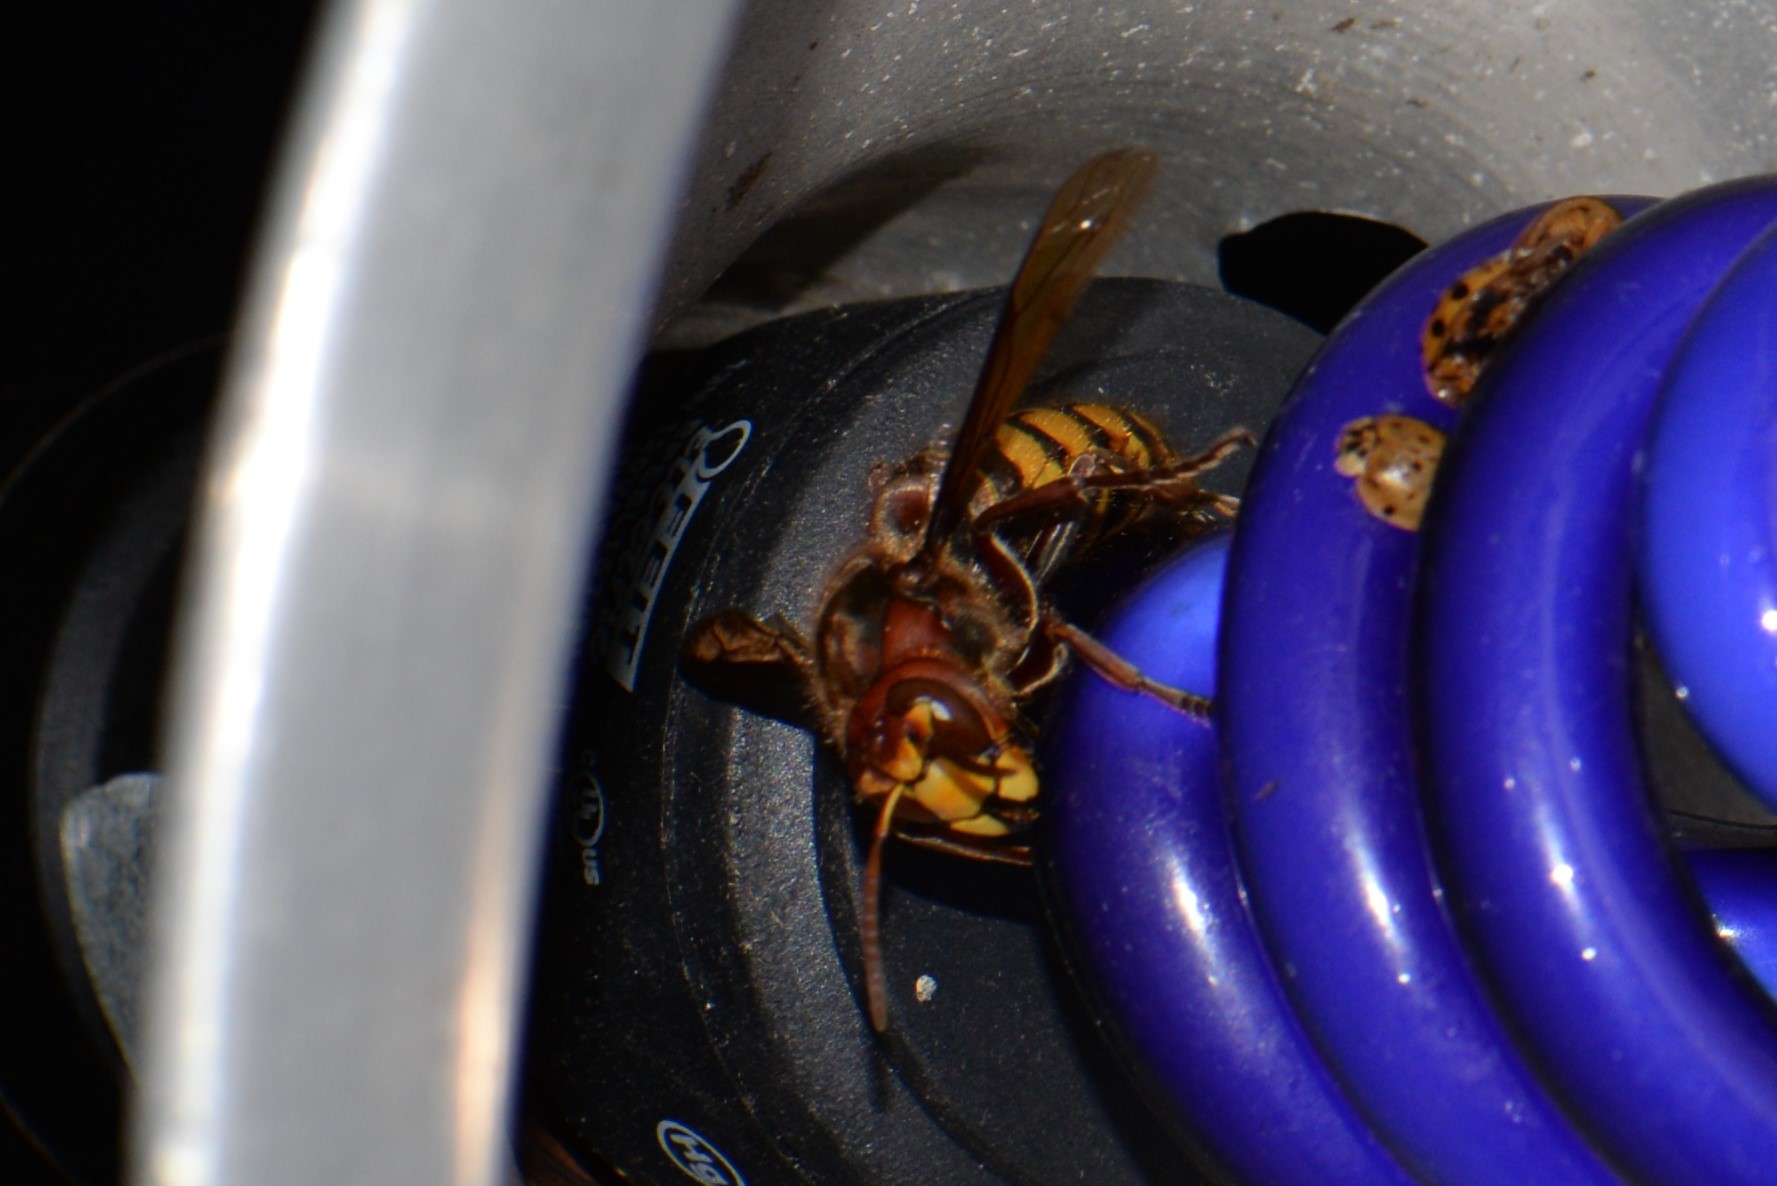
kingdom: Animalia
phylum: Arthropoda
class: Insecta
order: Hymenoptera
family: Vespidae
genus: Vespa
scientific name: Vespa crabro
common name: Hornet
